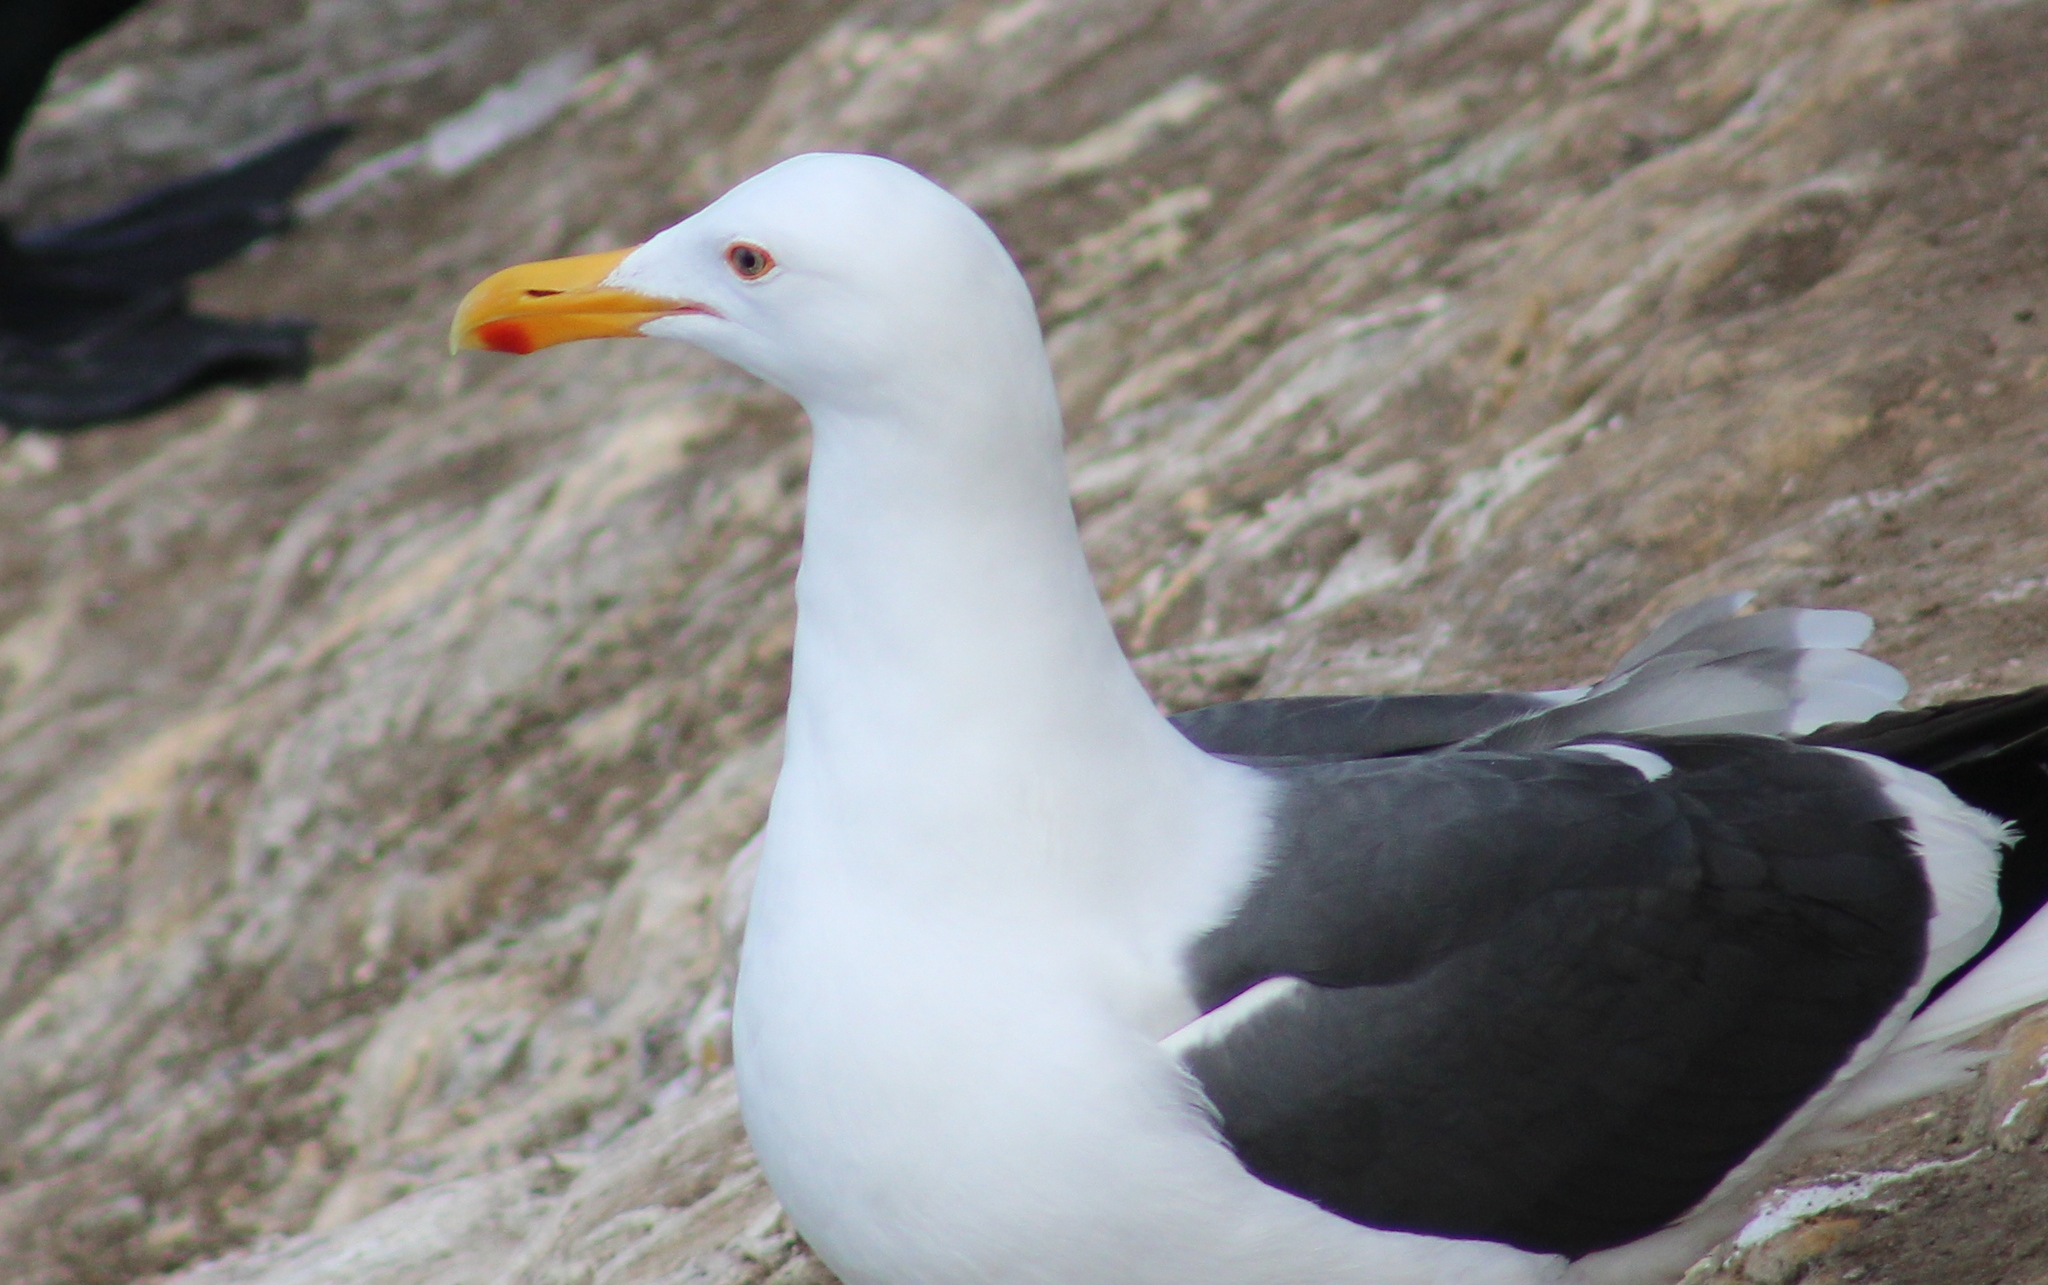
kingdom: Animalia
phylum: Chordata
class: Aves
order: Charadriiformes
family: Laridae
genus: Larus
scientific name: Larus occidentalis
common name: Western gull
